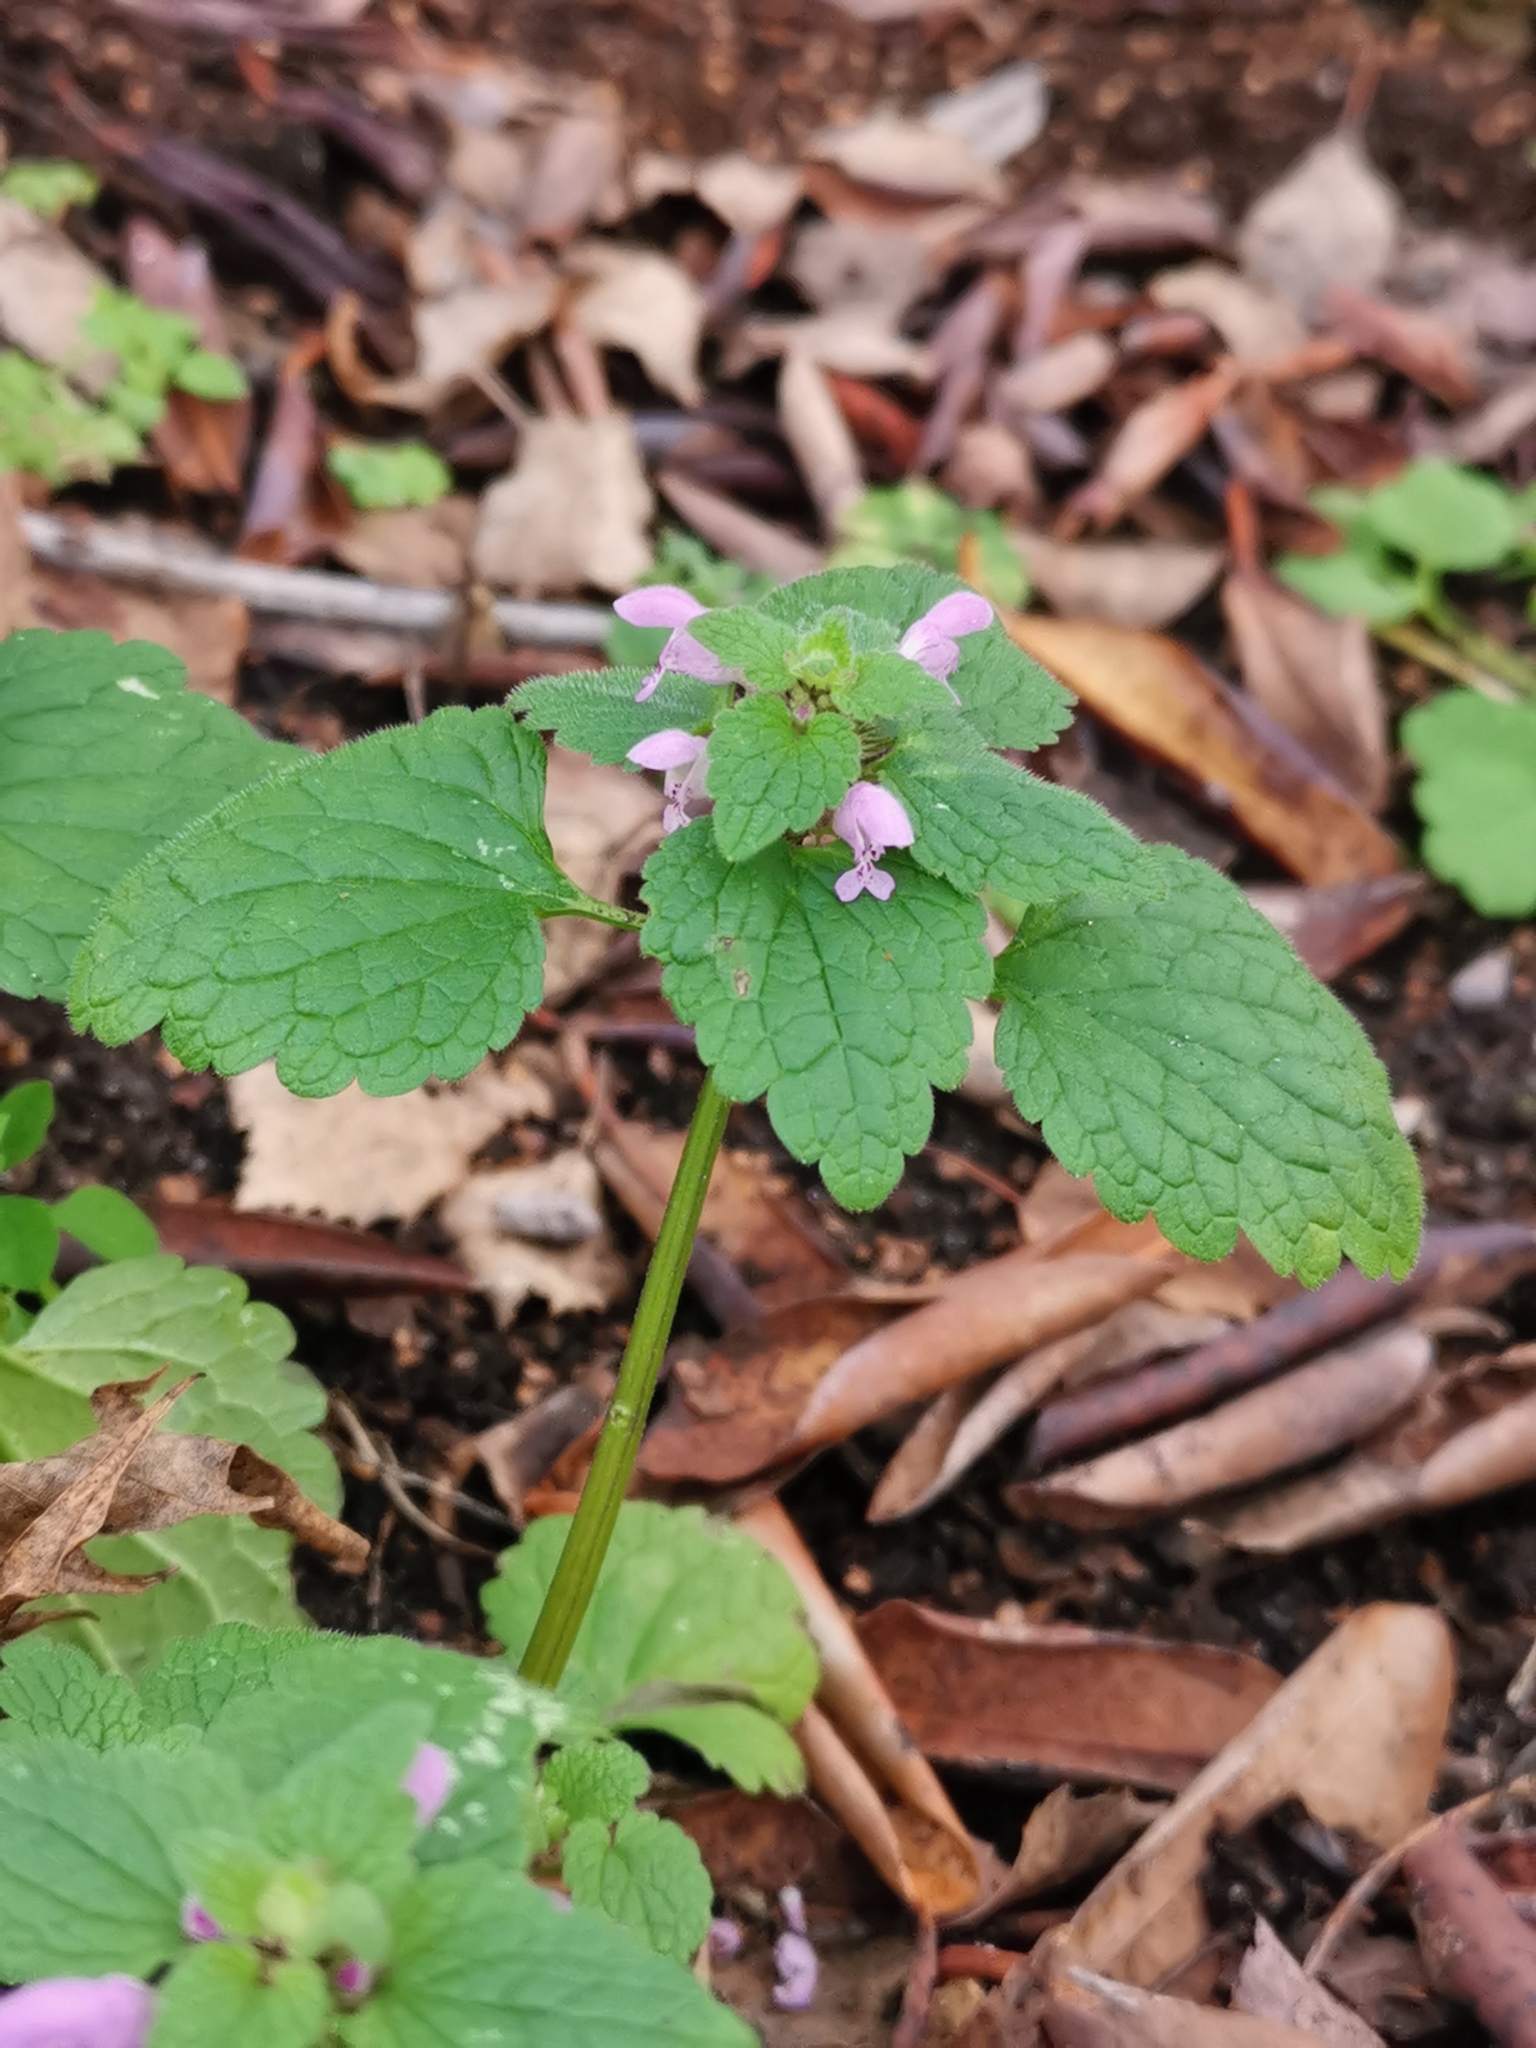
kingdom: Plantae
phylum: Tracheophyta
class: Magnoliopsida
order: Lamiales
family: Lamiaceae
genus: Lamium
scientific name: Lamium purpureum
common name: Red dead-nettle
